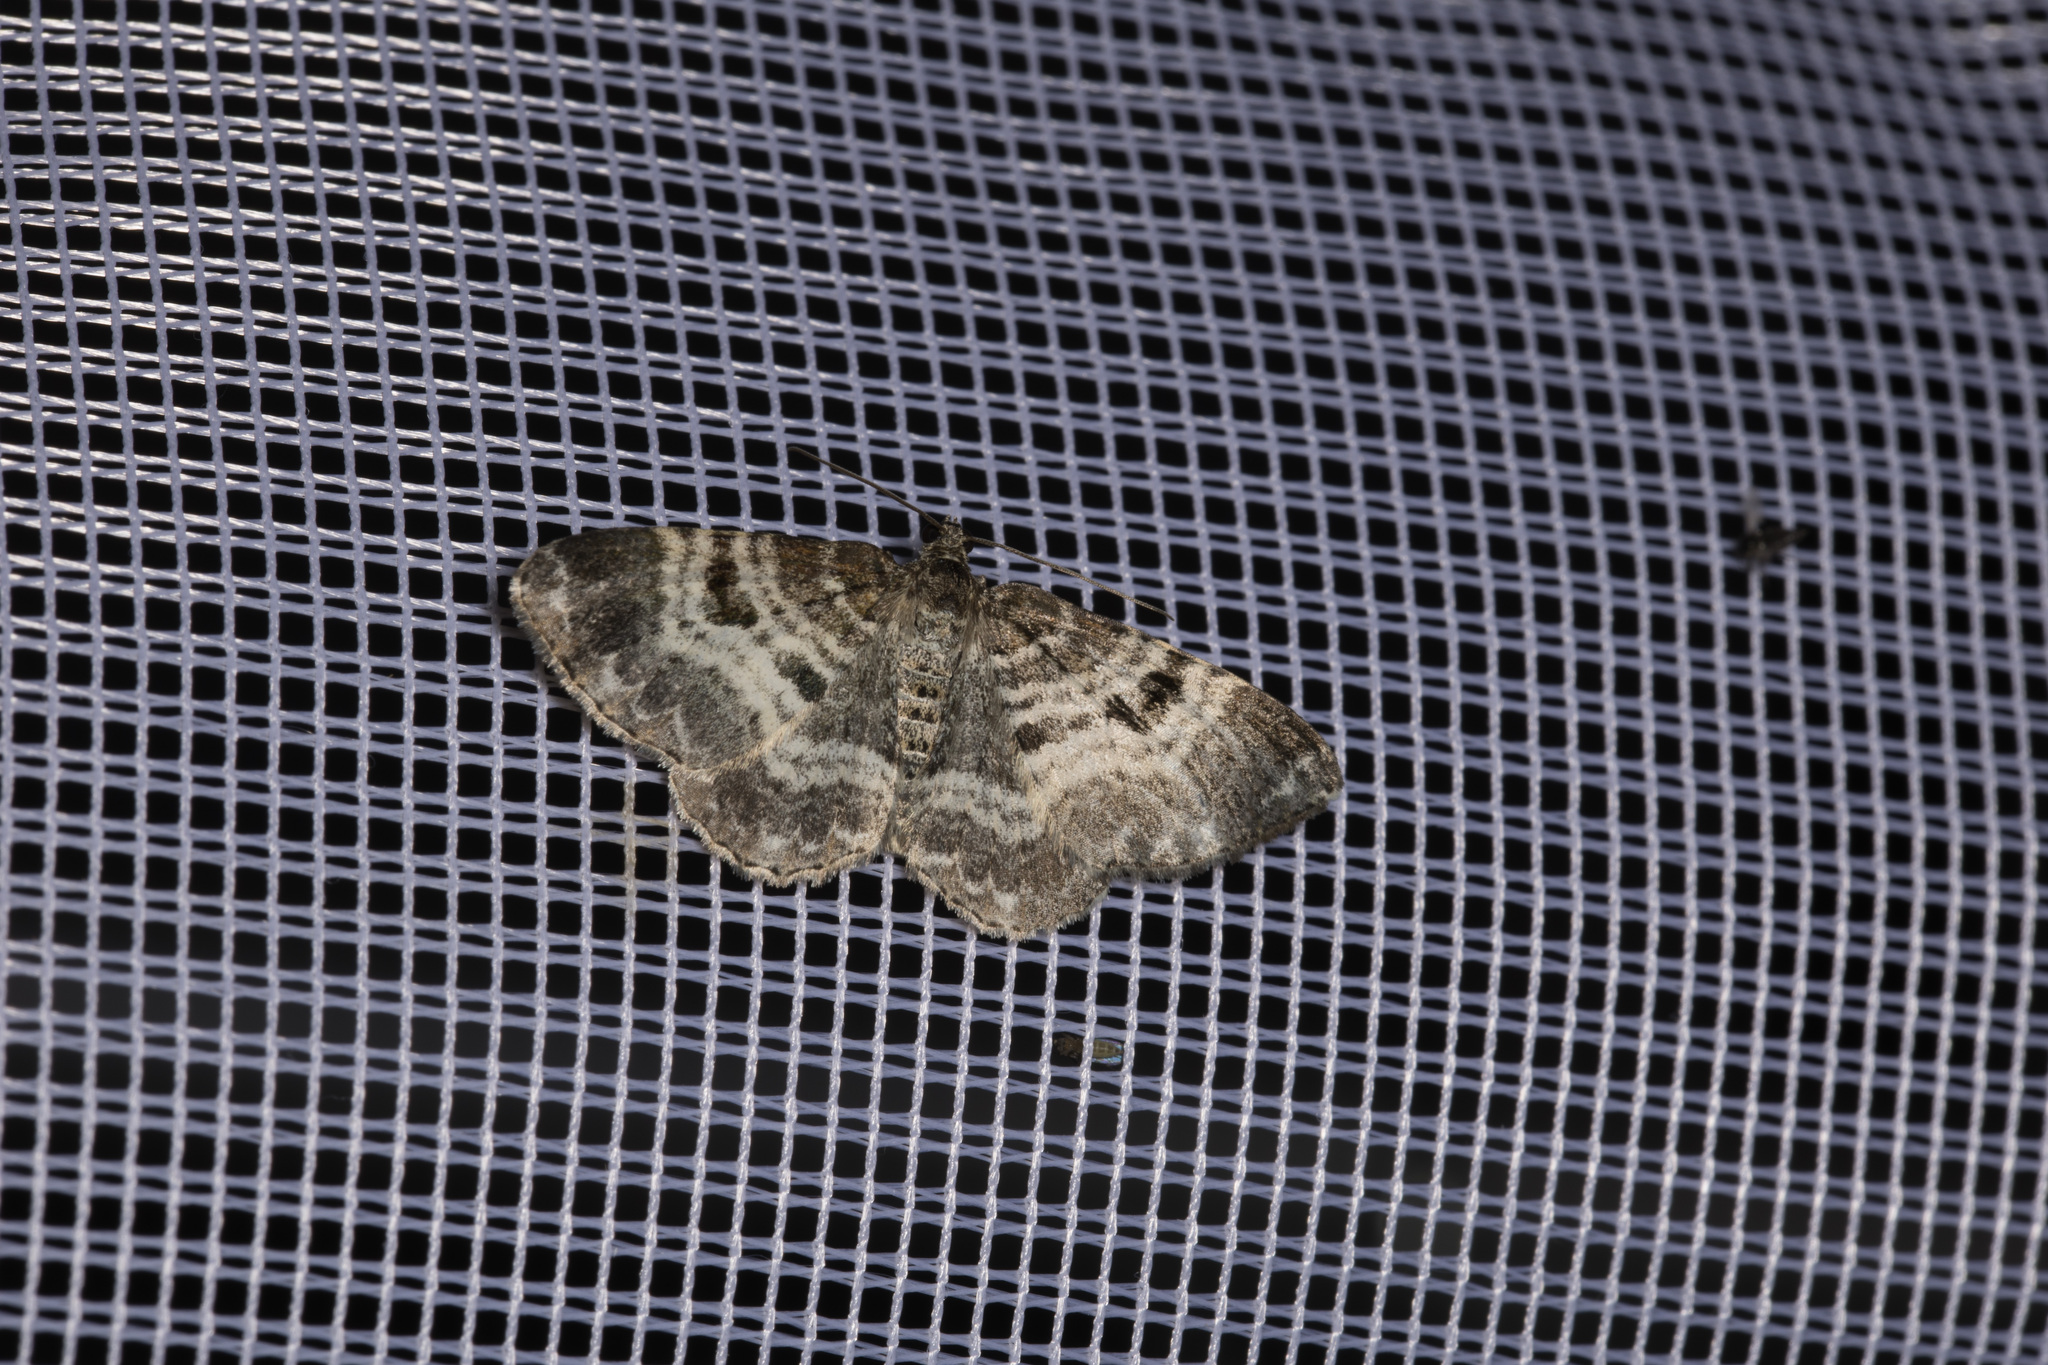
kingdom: Animalia
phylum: Arthropoda
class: Insecta
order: Lepidoptera
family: Geometridae
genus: Epirrhoe
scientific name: Epirrhoe alternata
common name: Common carpet
